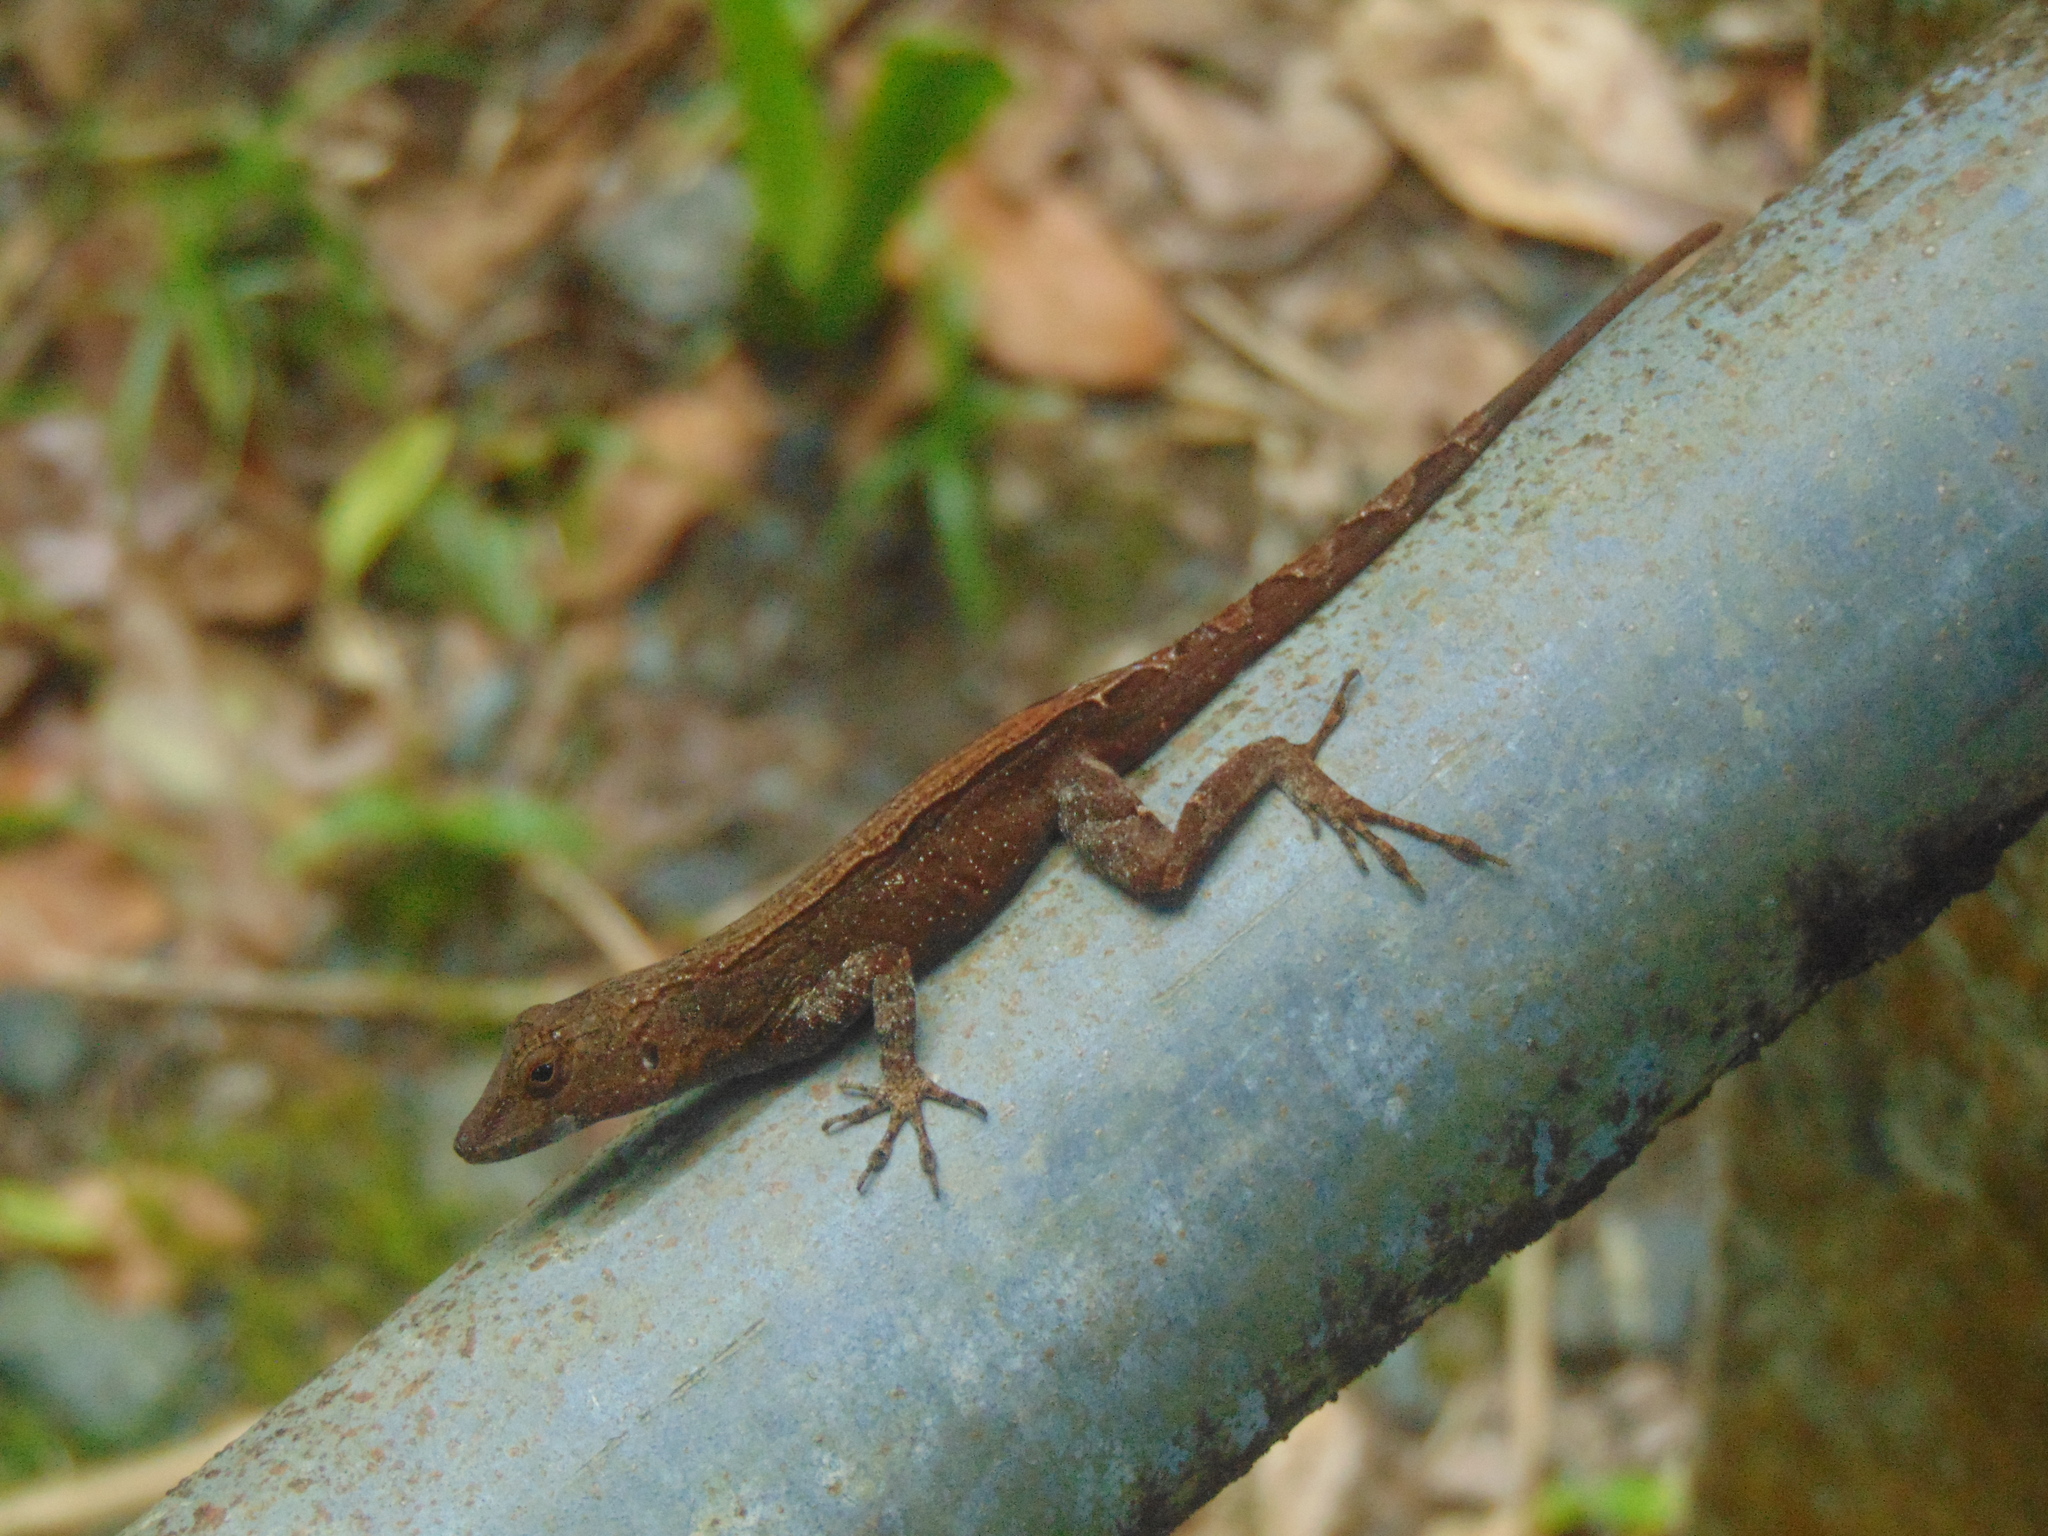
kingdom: Animalia
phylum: Chordata
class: Squamata
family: Dactyloidae
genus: Anolis
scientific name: Anolis cristatellus
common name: Crested anole
